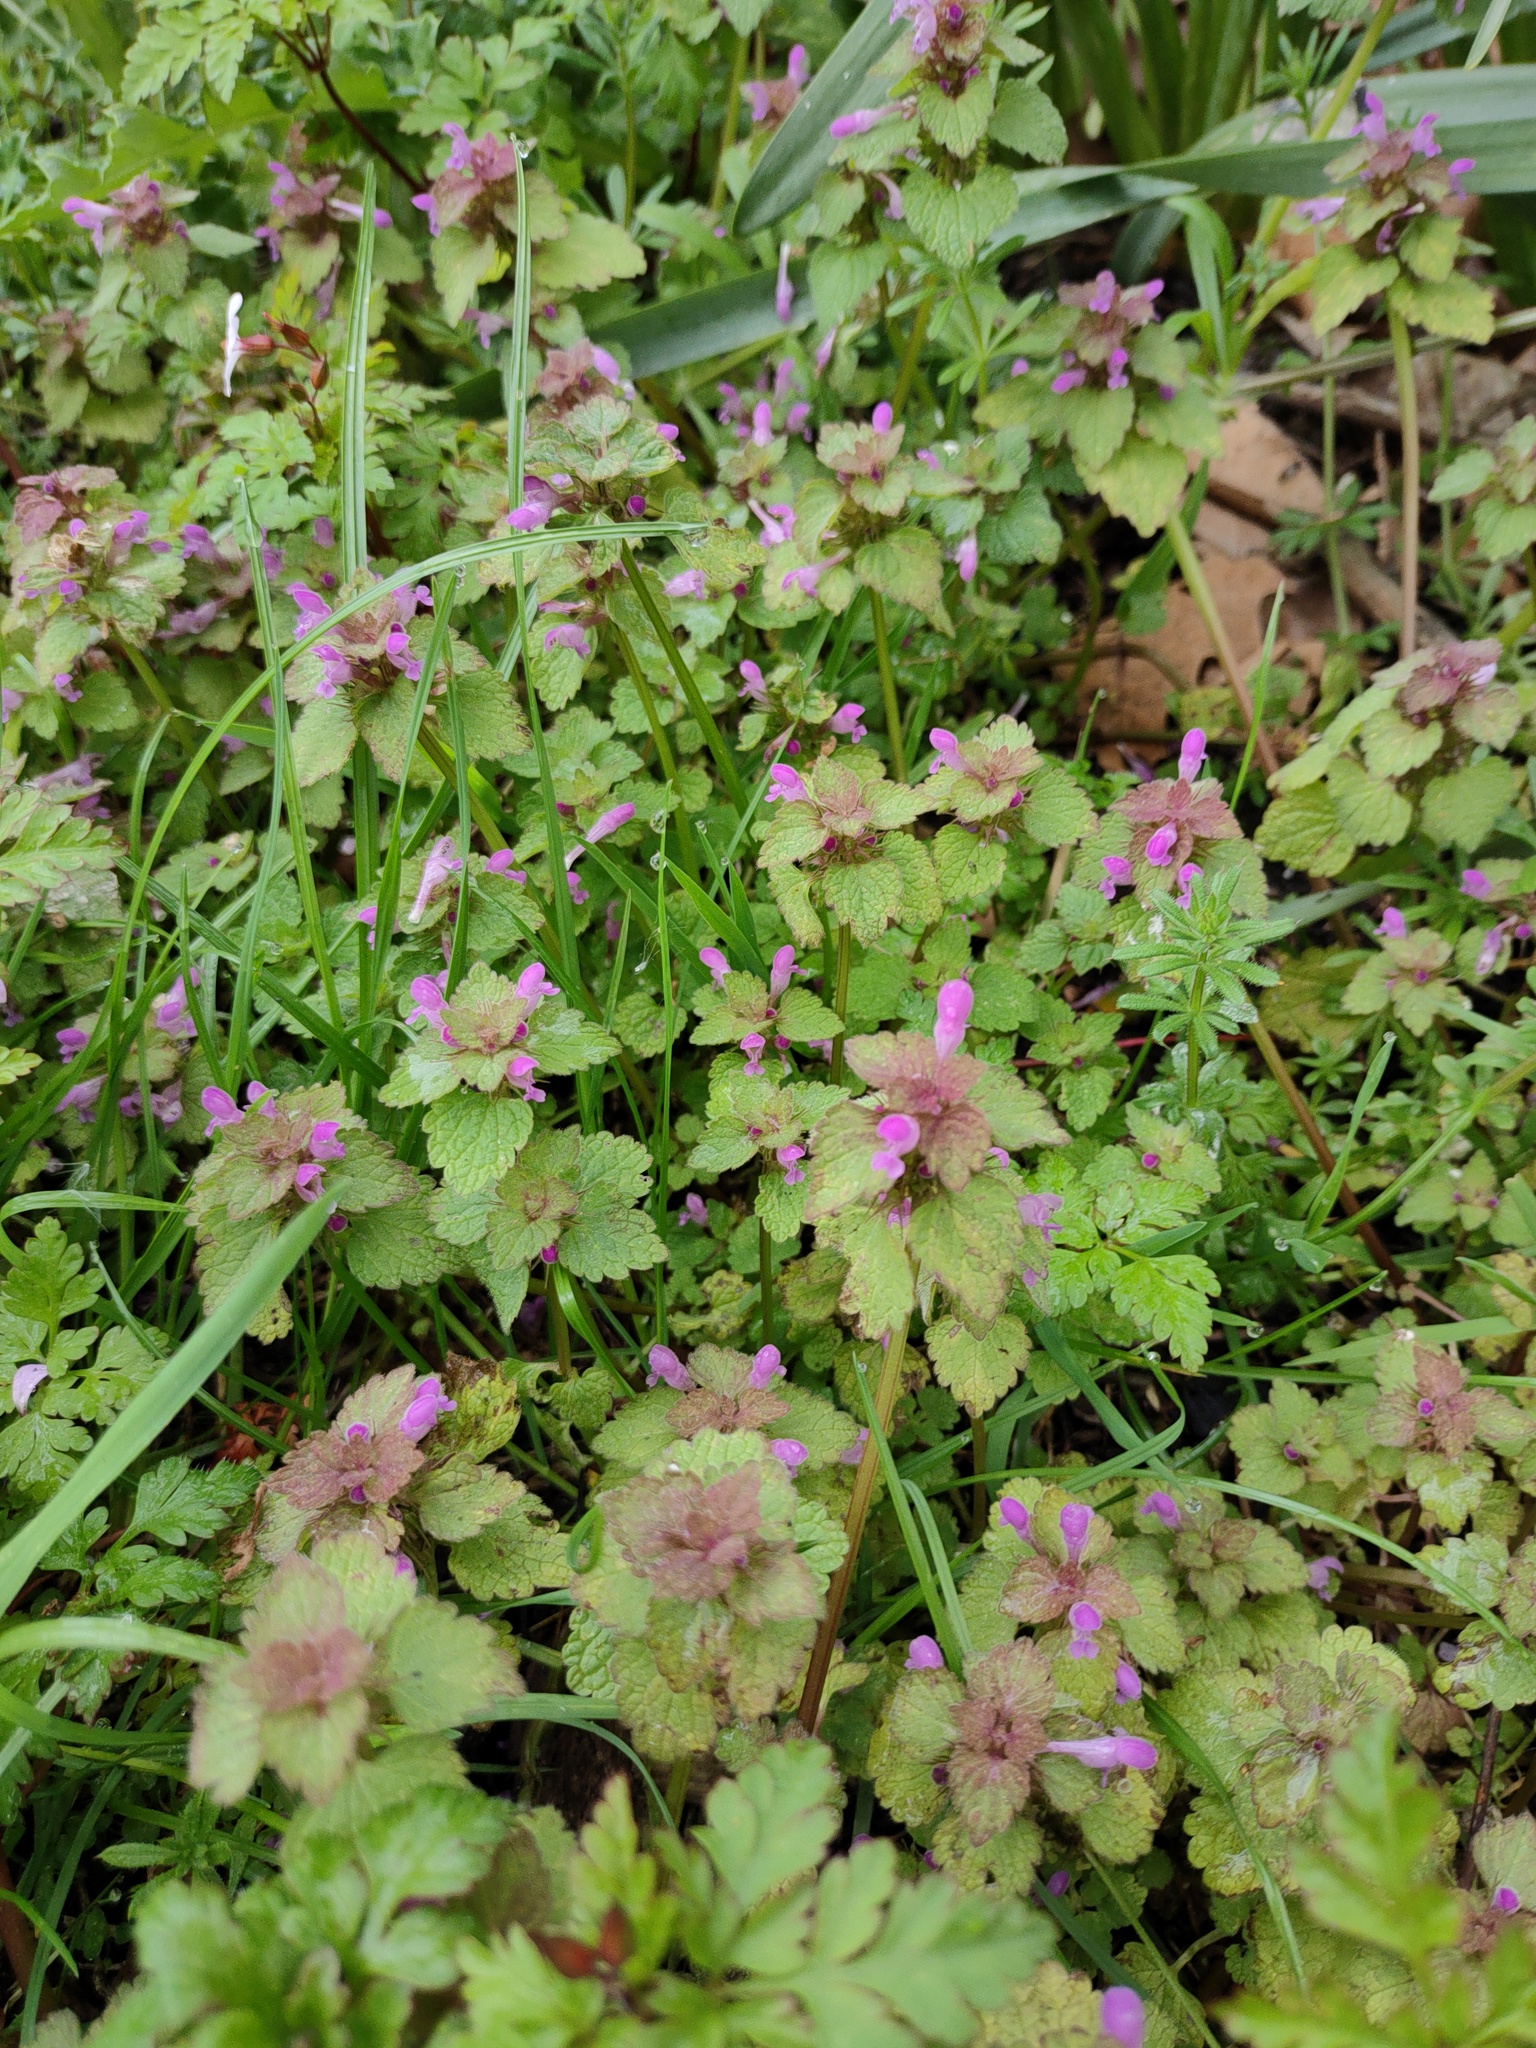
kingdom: Plantae
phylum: Tracheophyta
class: Magnoliopsida
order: Lamiales
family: Lamiaceae
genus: Lamium
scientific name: Lamium purpureum
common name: Red dead-nettle
